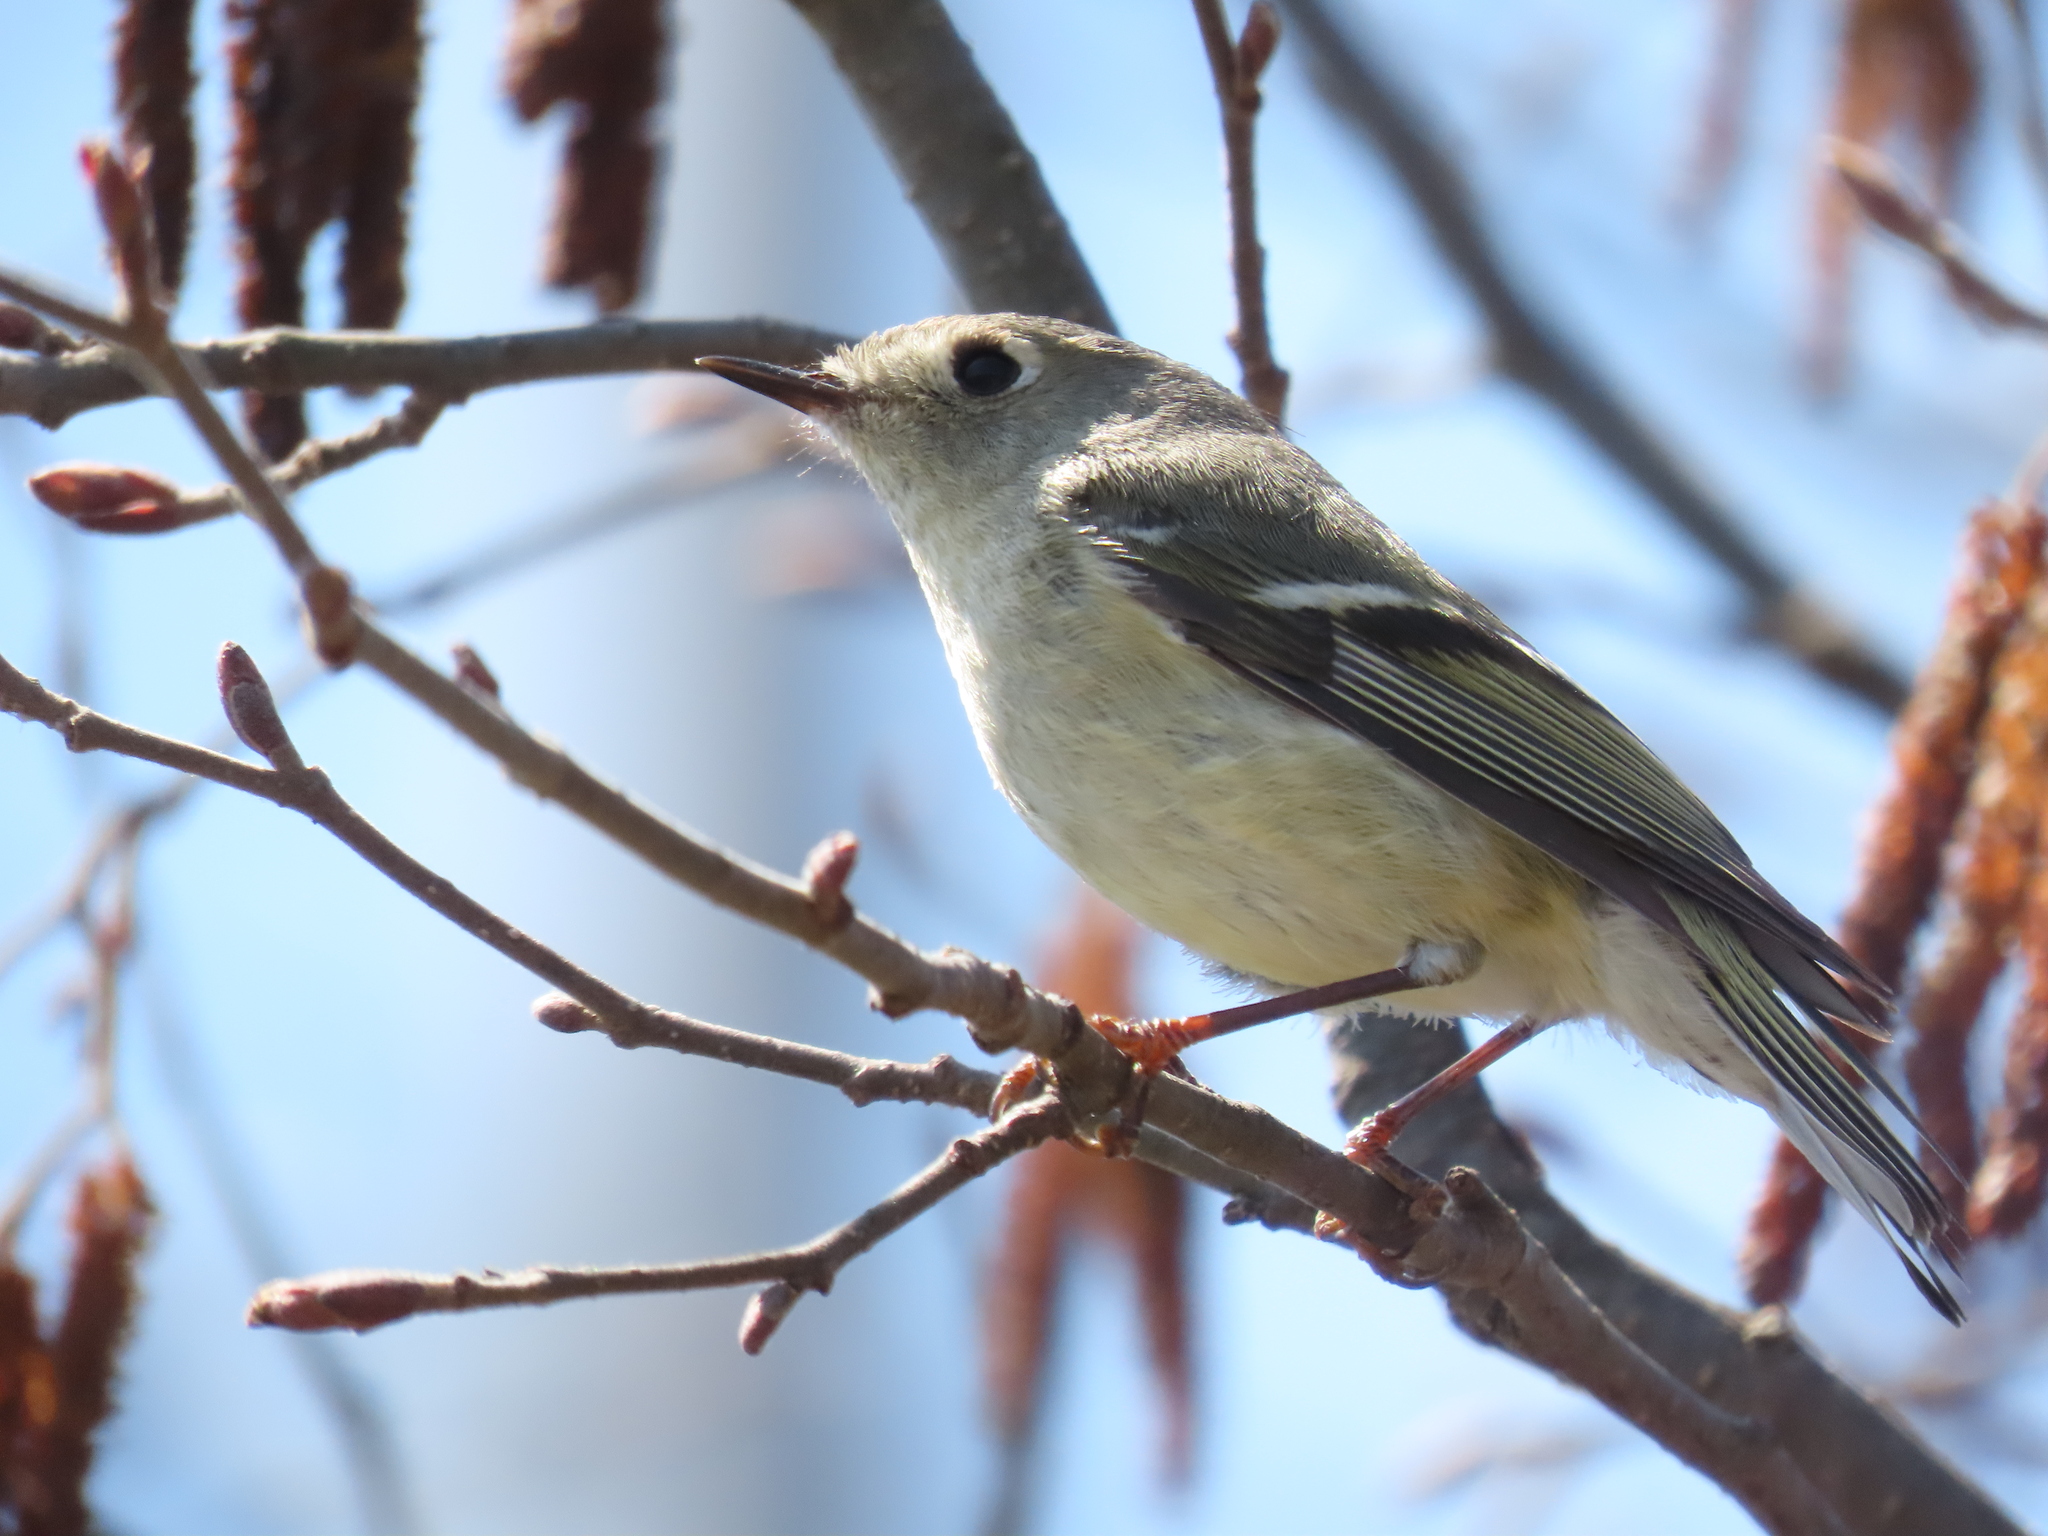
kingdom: Animalia
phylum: Chordata
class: Aves
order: Passeriformes
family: Regulidae
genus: Regulus
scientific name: Regulus calendula
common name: Ruby-crowned kinglet
